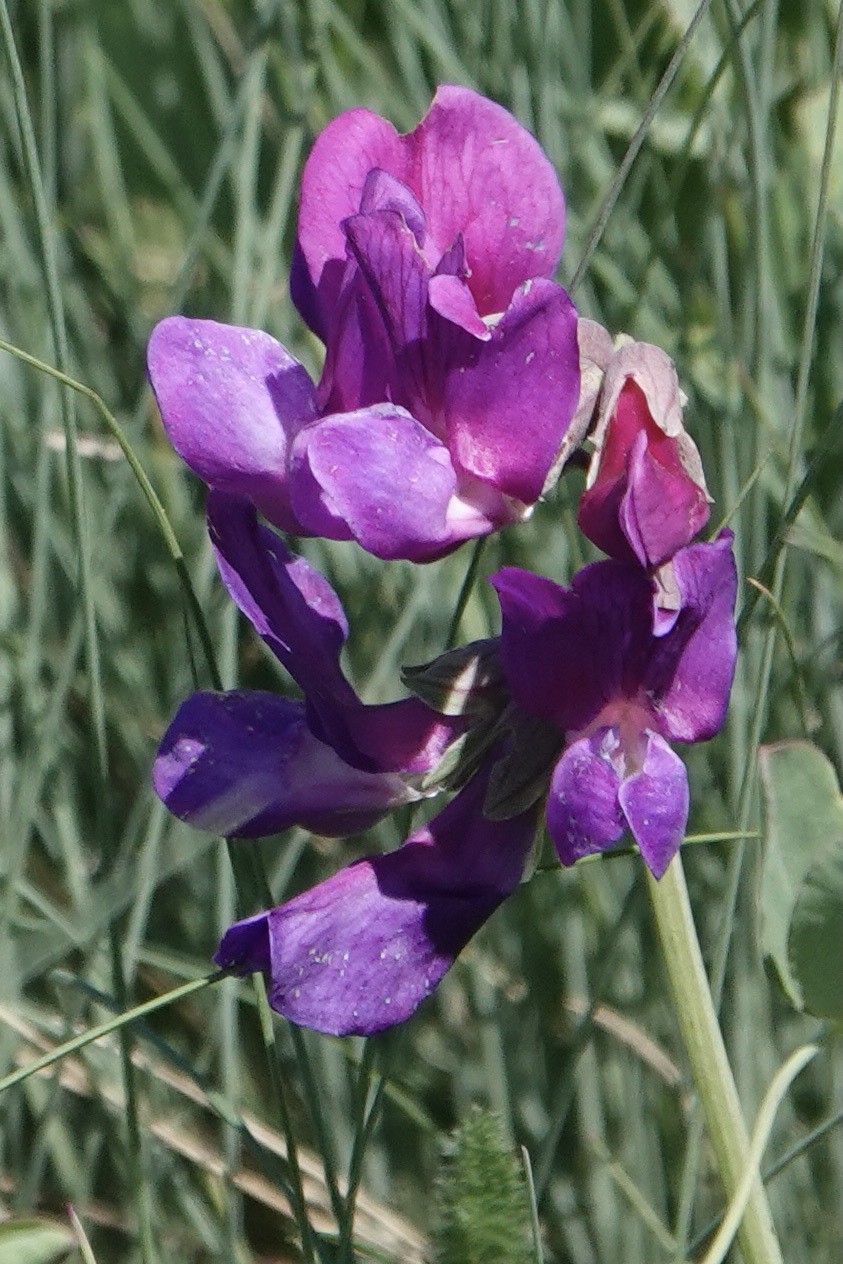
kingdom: Plantae
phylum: Tracheophyta
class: Magnoliopsida
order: Fabales
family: Fabaceae
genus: Lathyrus
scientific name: Lathyrus japonicus
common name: Sea pea
